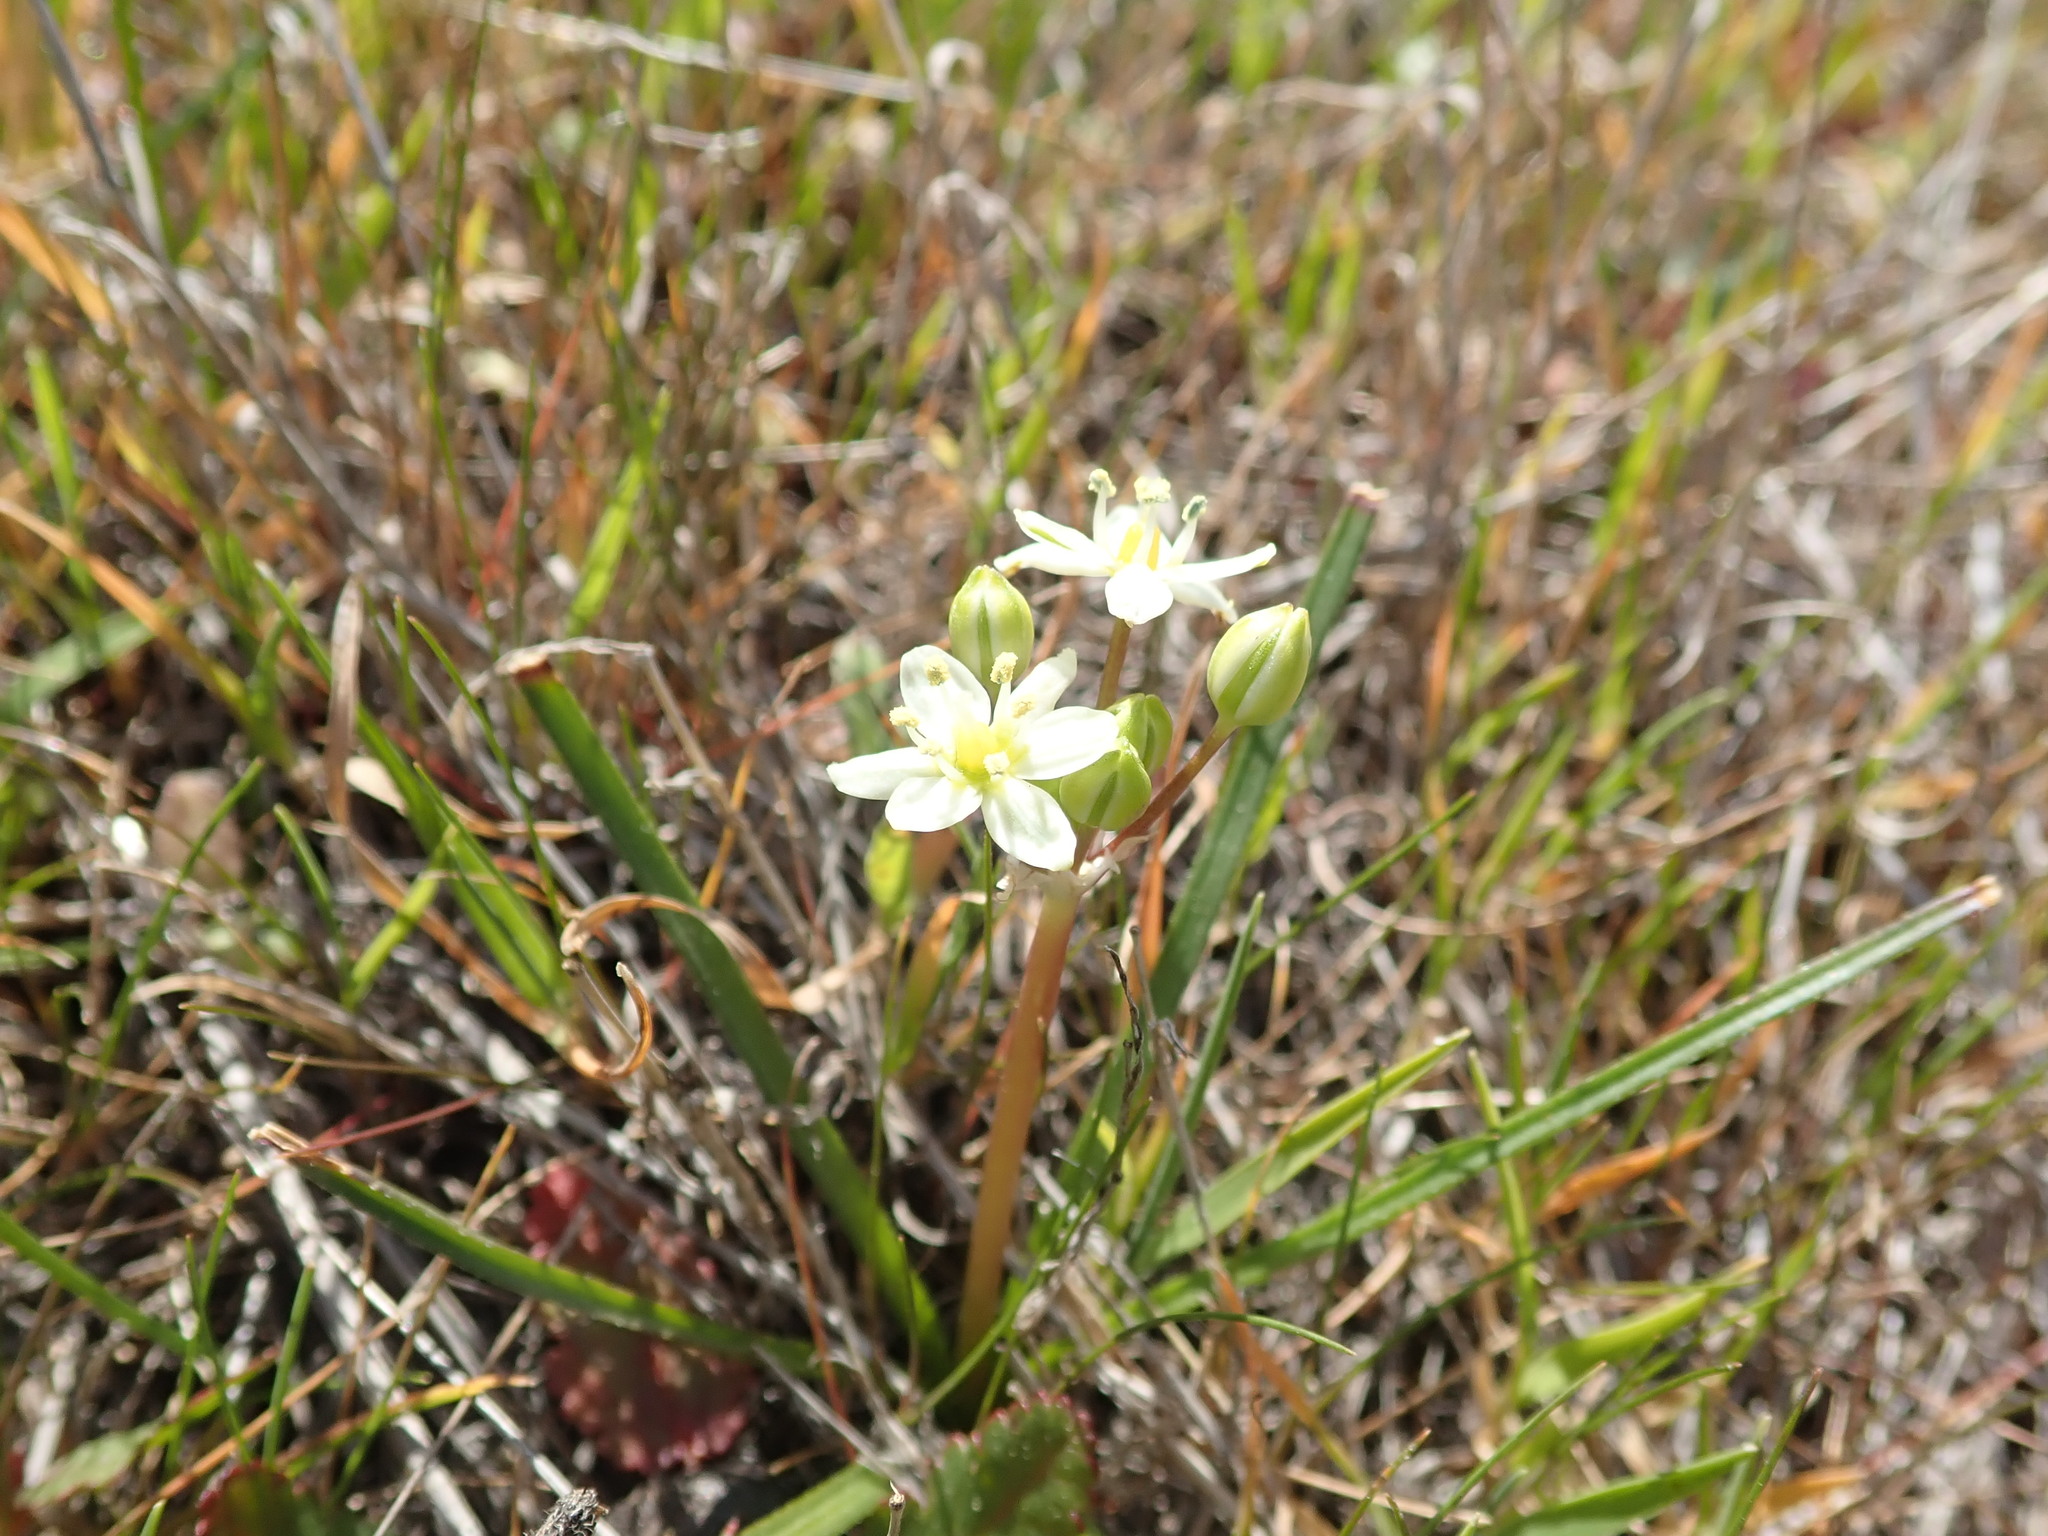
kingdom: Plantae
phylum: Tracheophyta
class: Liliopsida
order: Asparagales
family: Asparagaceae
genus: Muilla
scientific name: Muilla maritima
